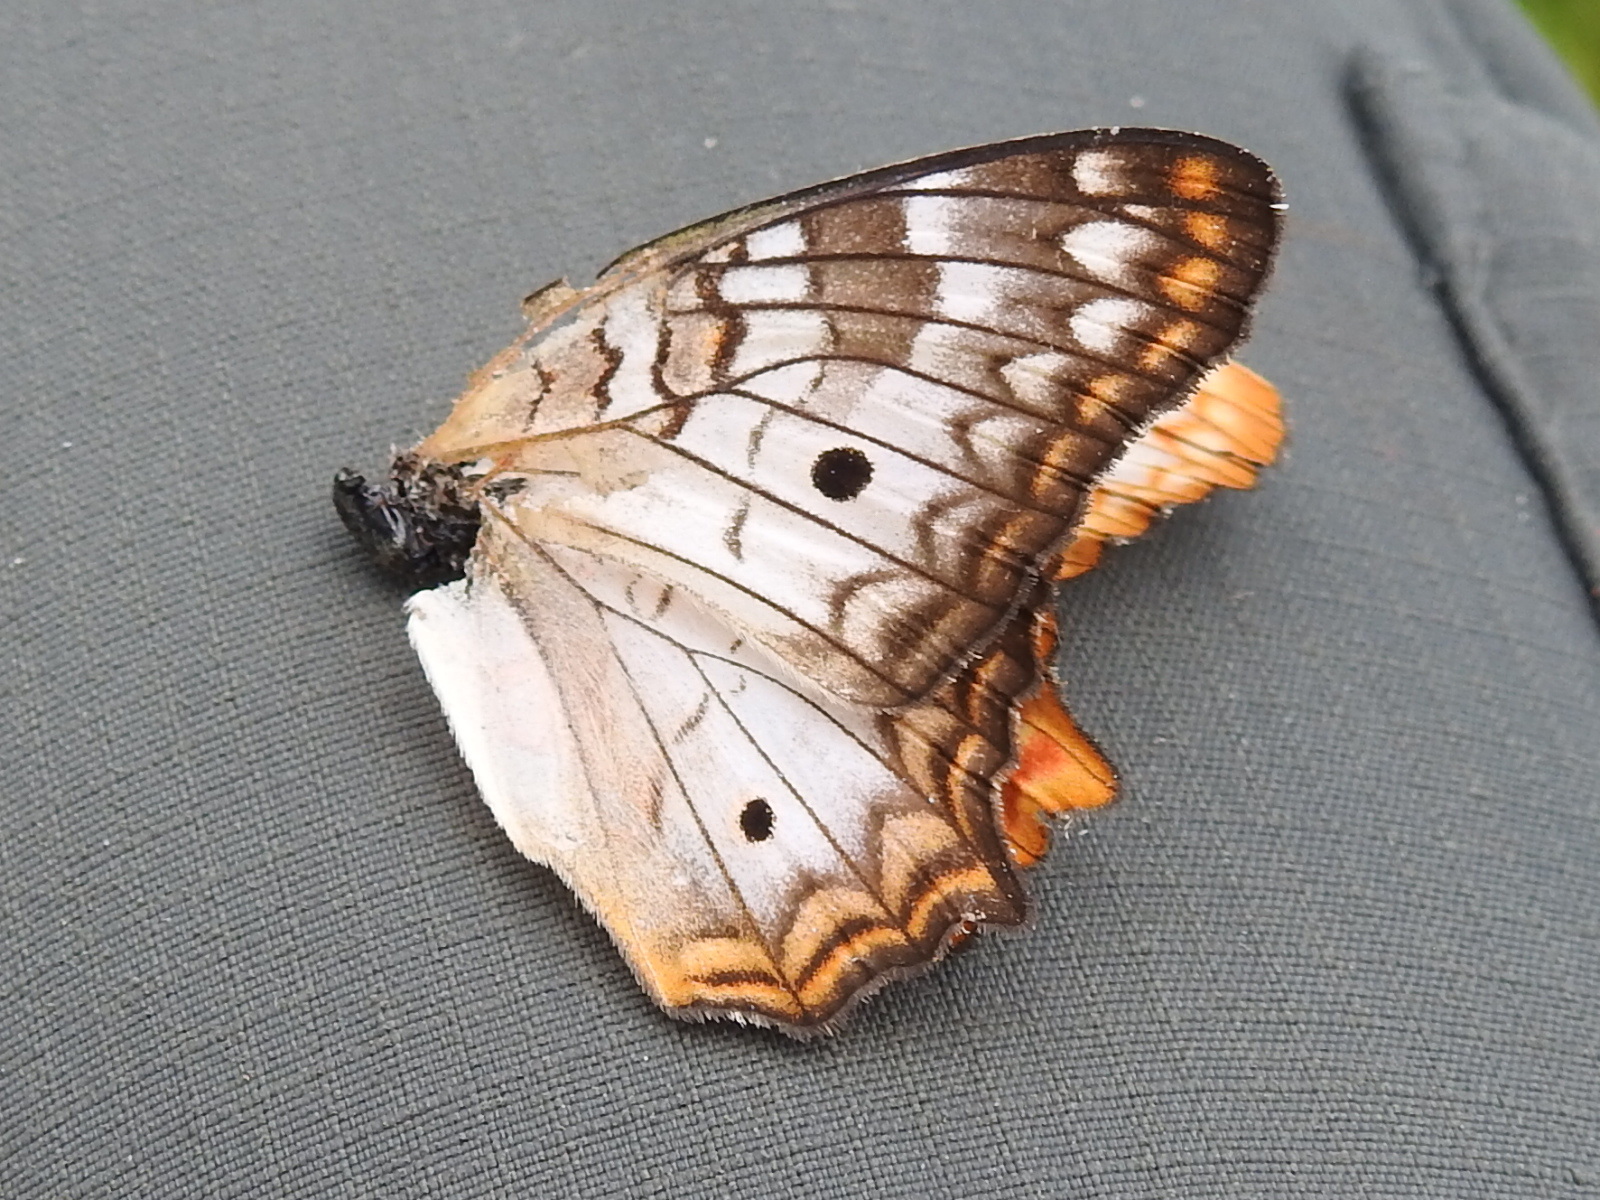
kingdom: Animalia
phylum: Arthropoda
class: Insecta
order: Lepidoptera
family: Nymphalidae
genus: Anartia
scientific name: Anartia jatrophae
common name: White peacock
